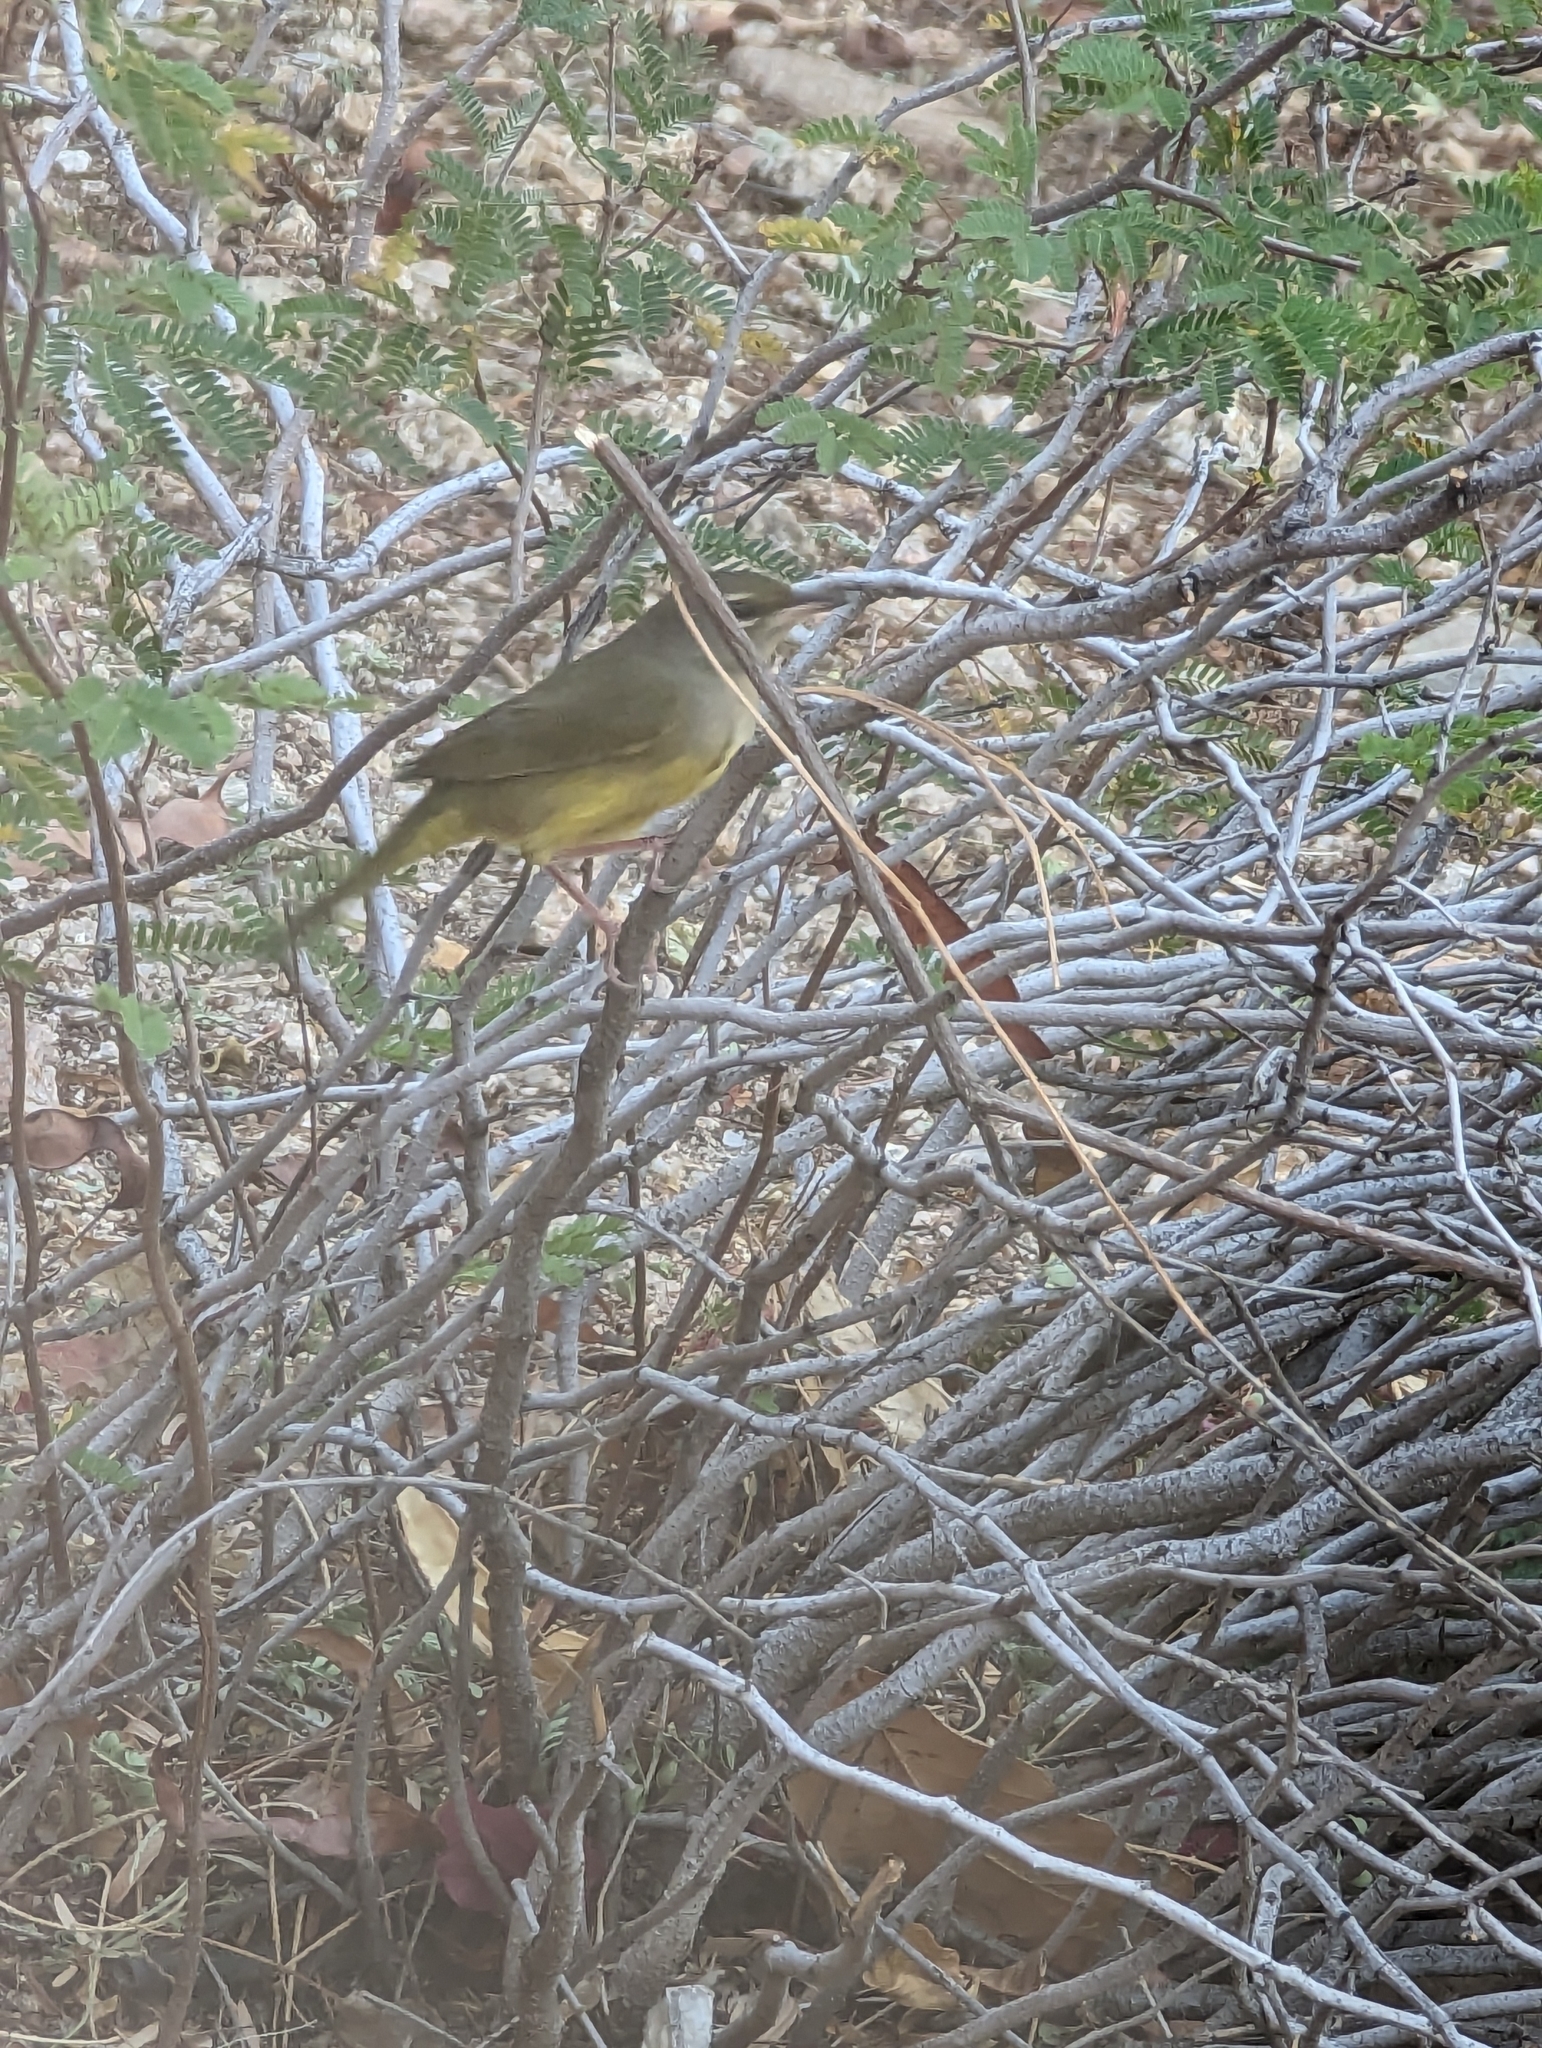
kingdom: Animalia
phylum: Chordata
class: Aves
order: Passeriformes
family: Parulidae
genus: Geothlypis
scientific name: Geothlypis tolmiei
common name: Macgillivray's warbler
